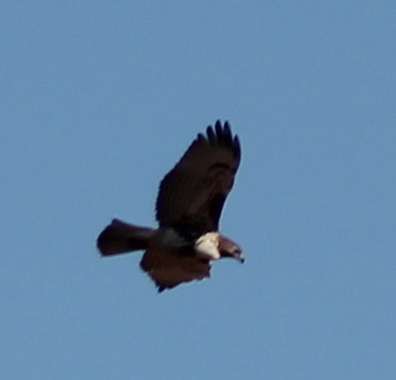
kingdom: Animalia
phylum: Chordata
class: Aves
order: Accipitriformes
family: Accipitridae
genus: Buteo
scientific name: Buteo jamaicensis
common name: Red-tailed hawk
